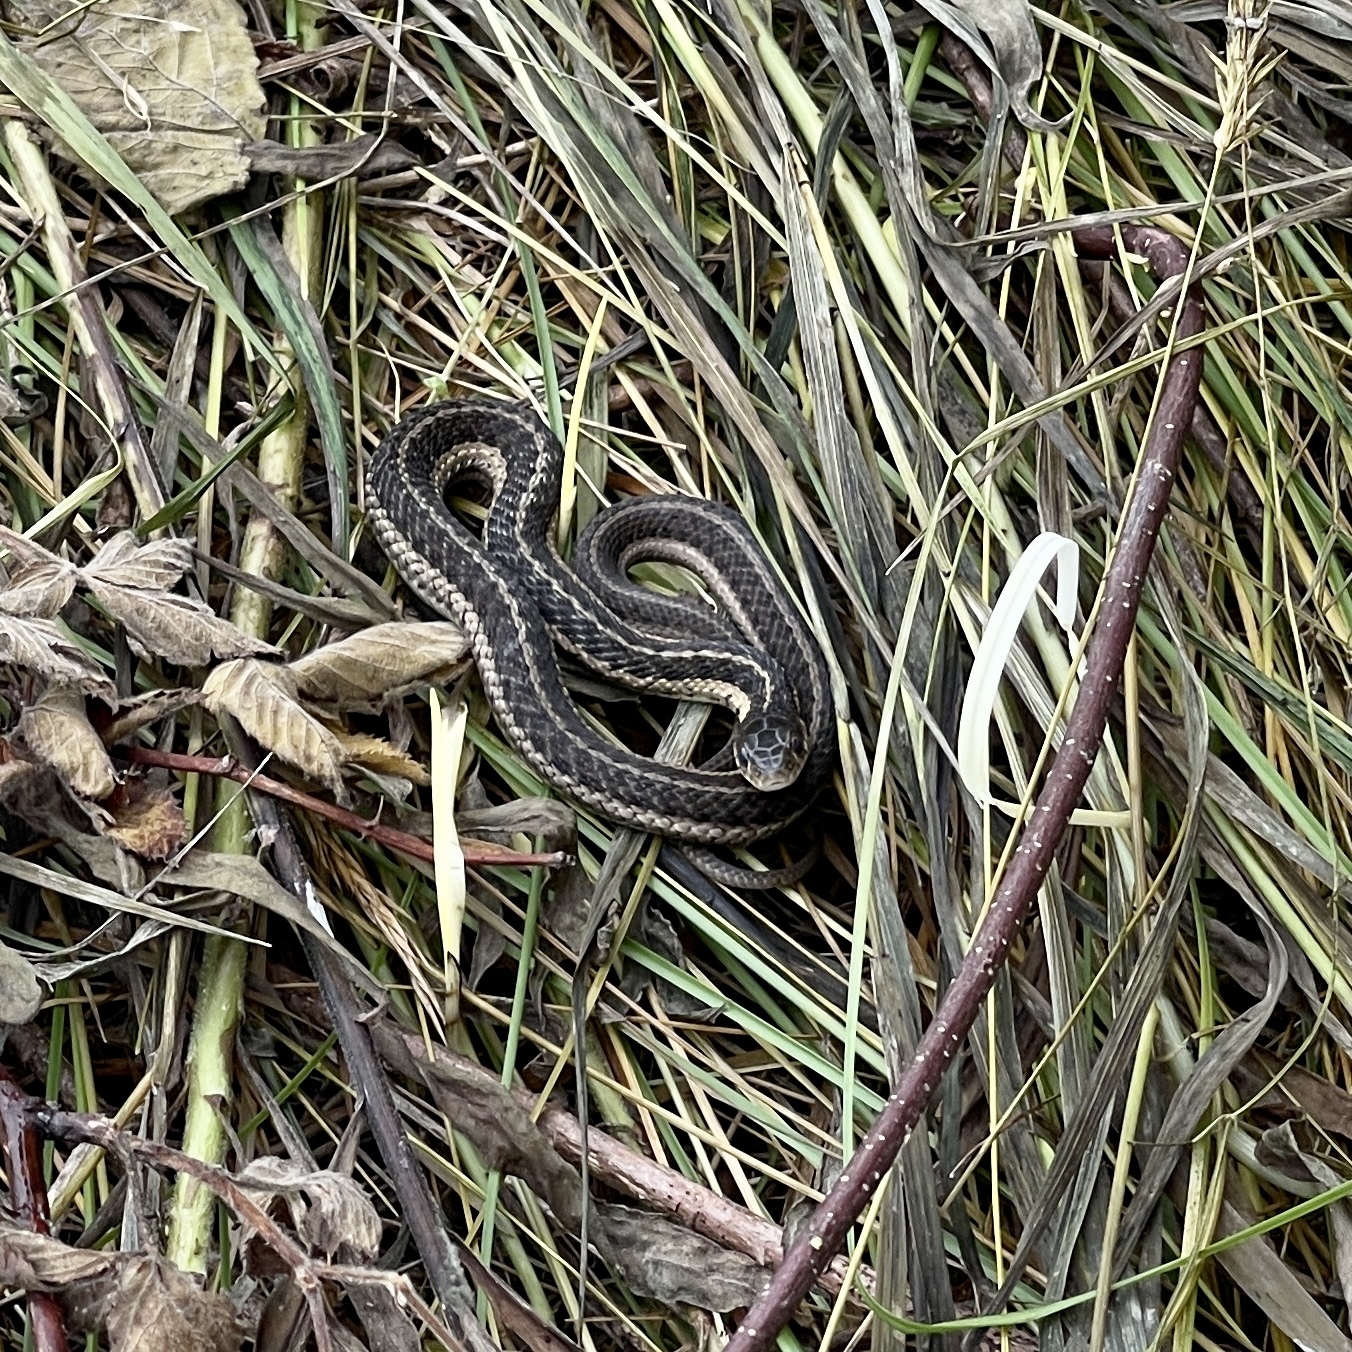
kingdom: Animalia
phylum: Chordata
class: Squamata
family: Colubridae
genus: Thamnophis
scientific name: Thamnophis sirtalis
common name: Common garter snake
